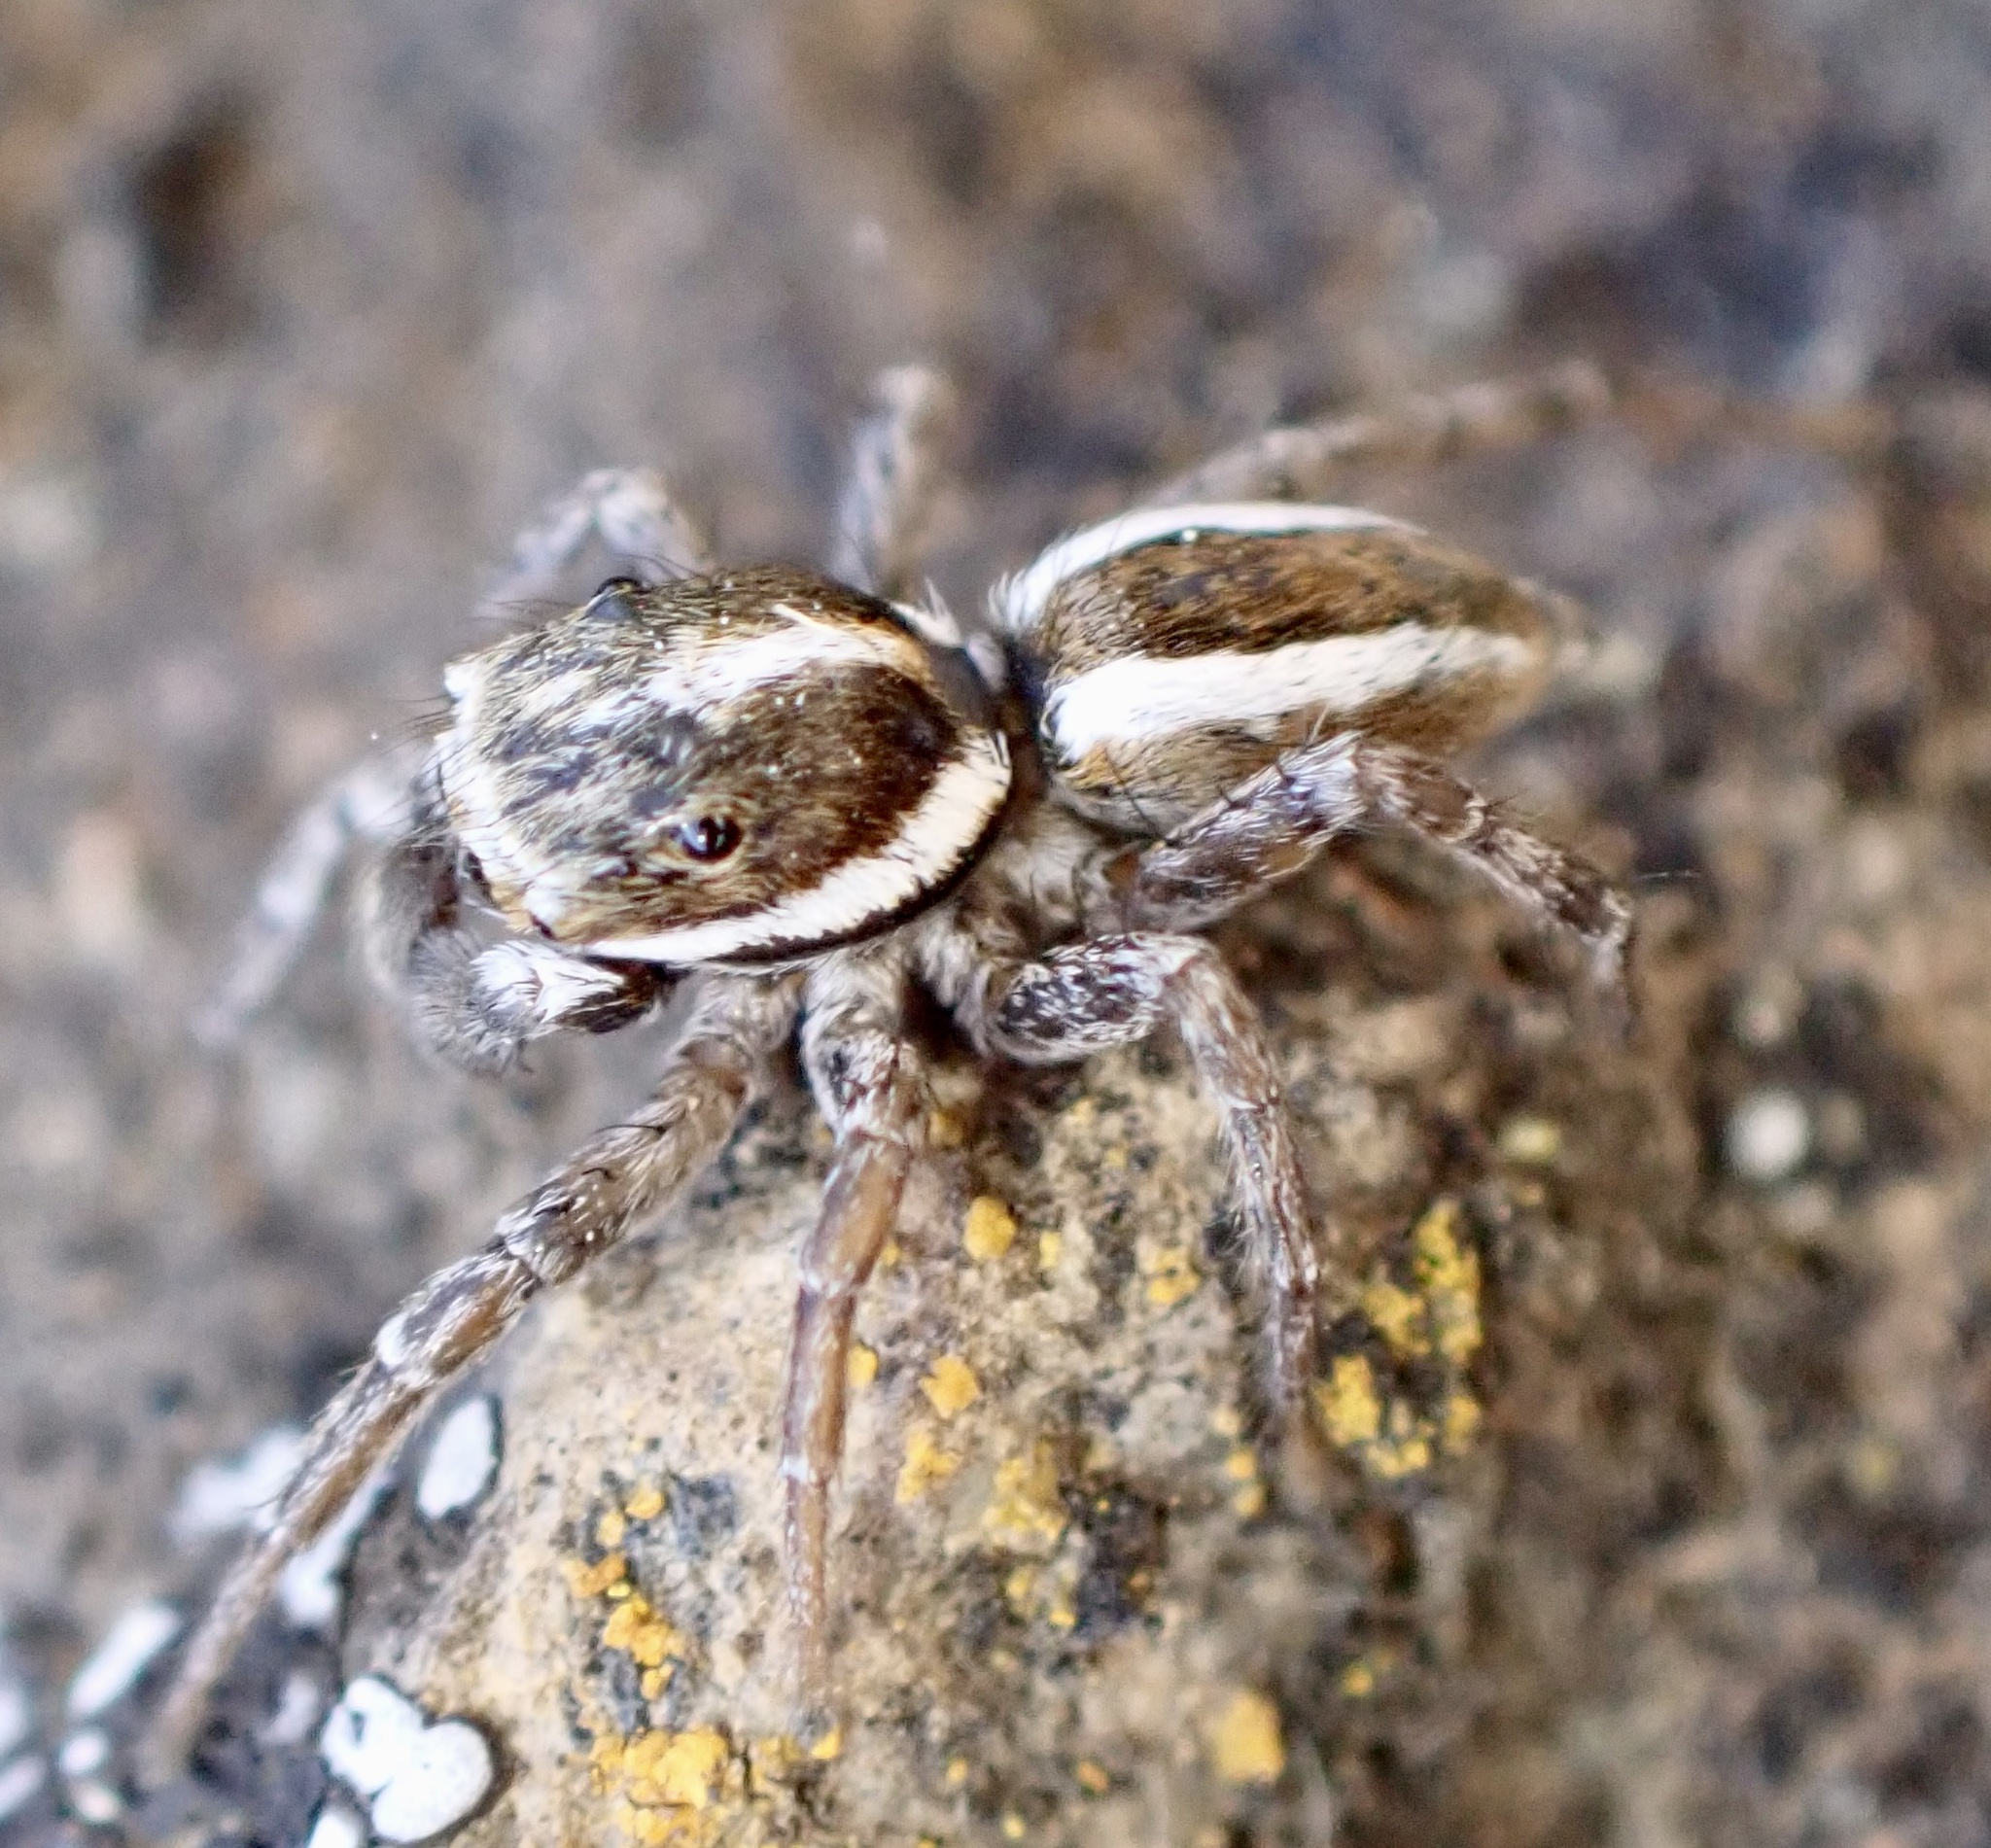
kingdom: Animalia
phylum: Arthropoda
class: Arachnida
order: Araneae
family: Salticidae
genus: Menemerus
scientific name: Menemerus bivittatus
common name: Gray wall jumper
